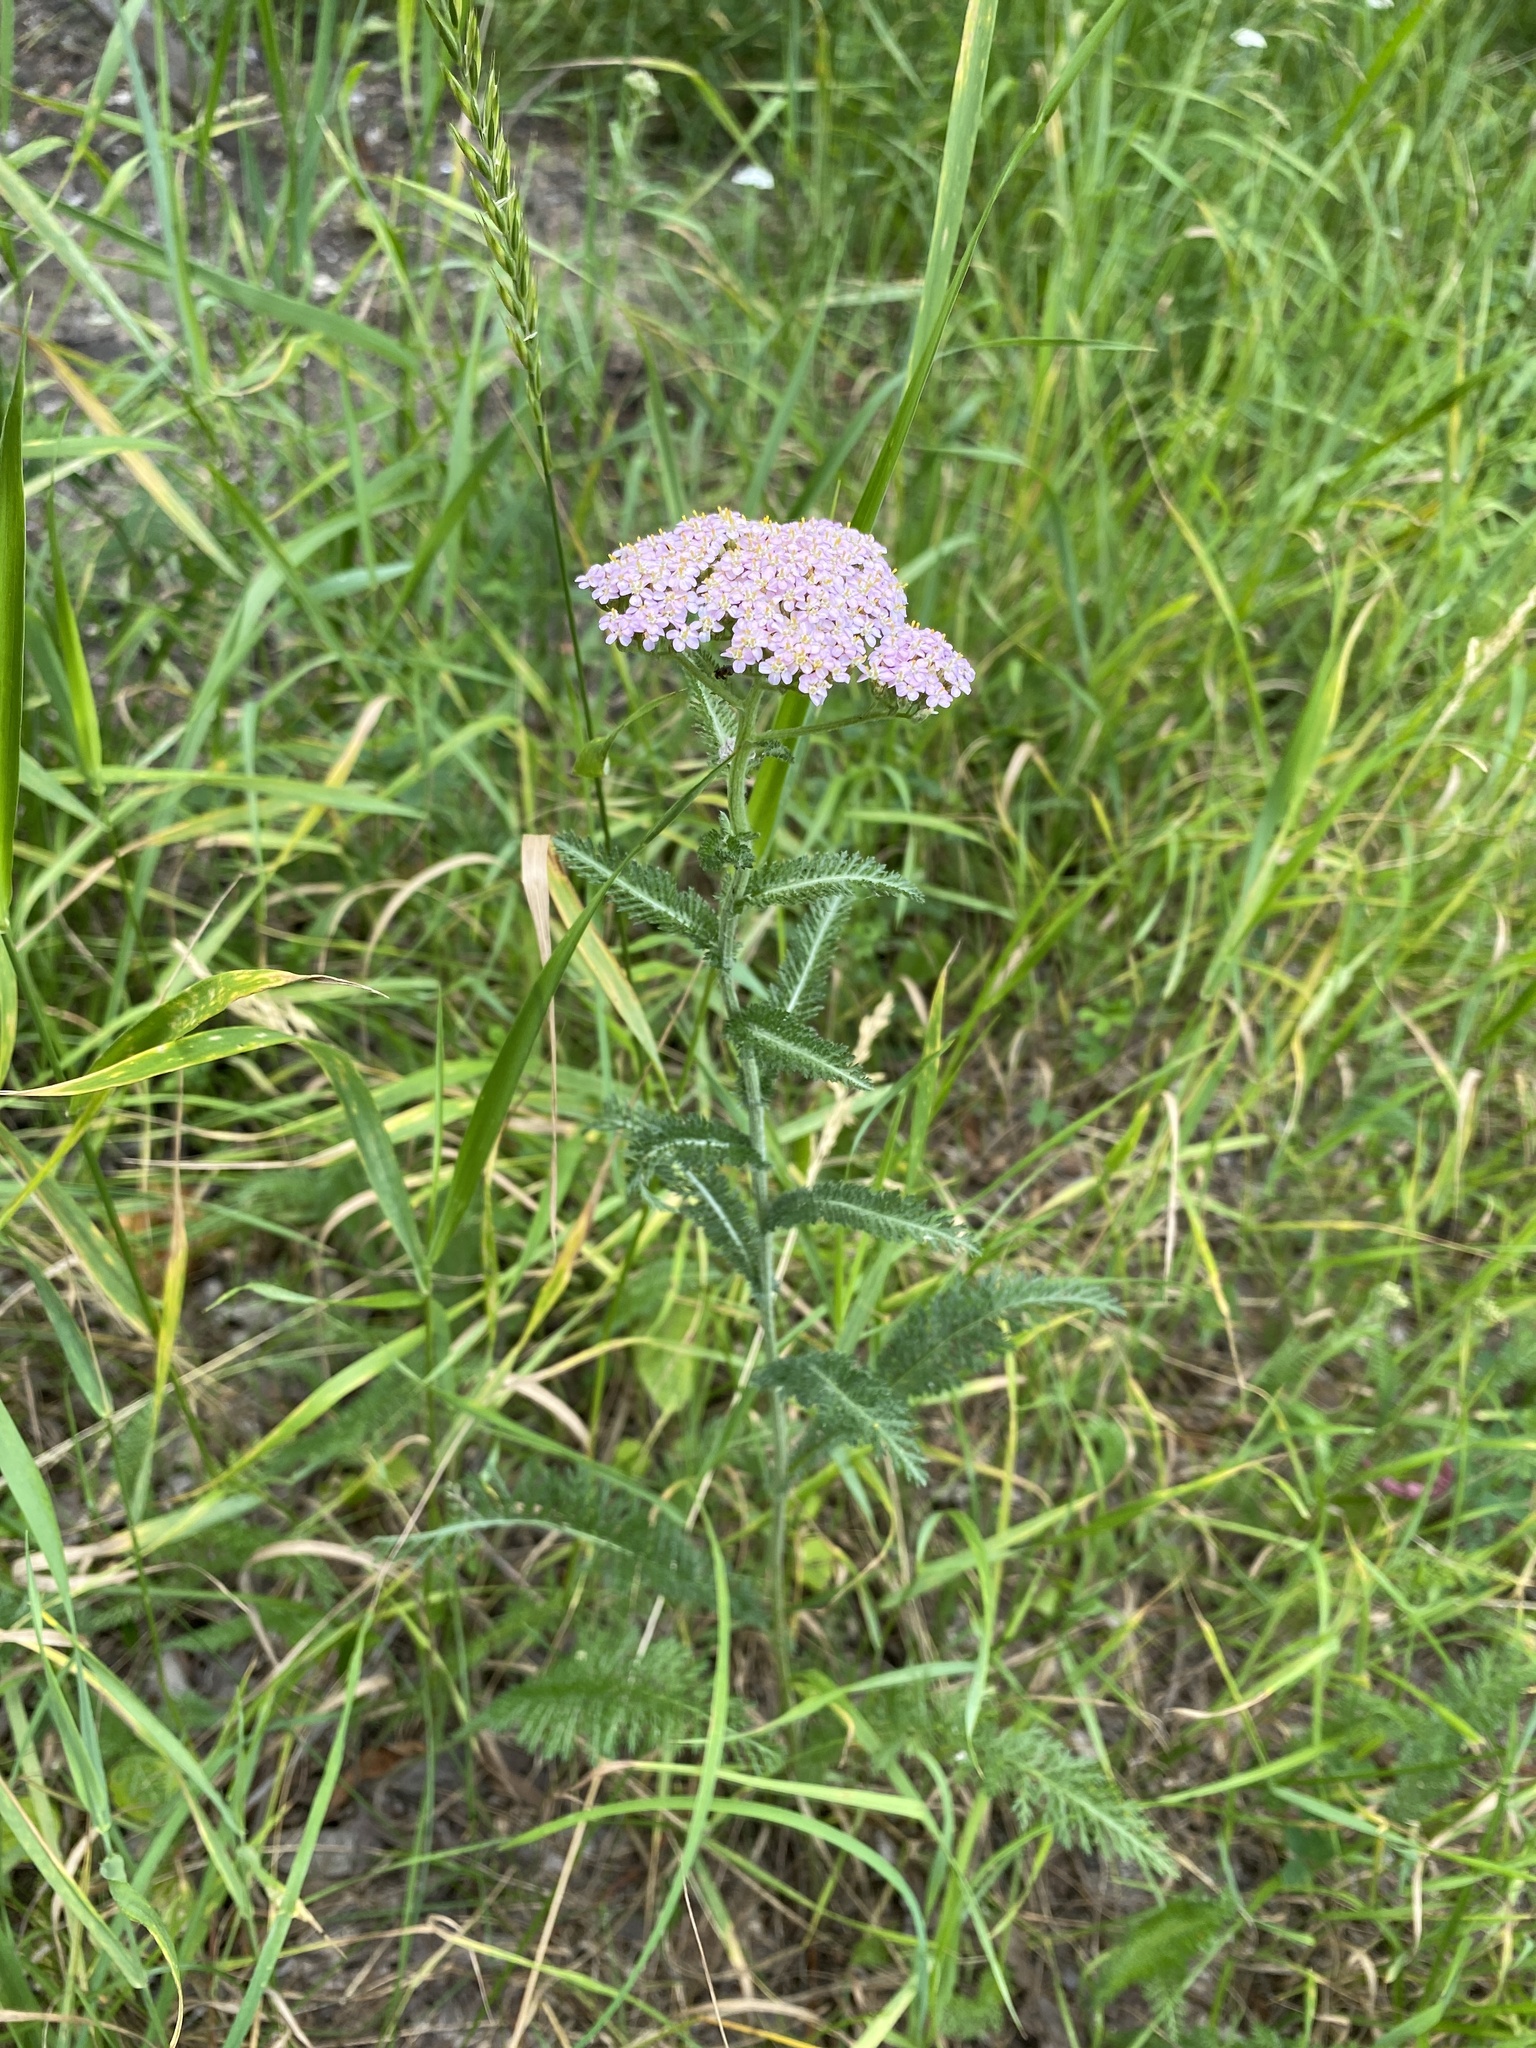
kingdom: Plantae
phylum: Tracheophyta
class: Magnoliopsida
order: Asterales
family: Asteraceae
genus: Achillea
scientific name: Achillea millefolium
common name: Yarrow
